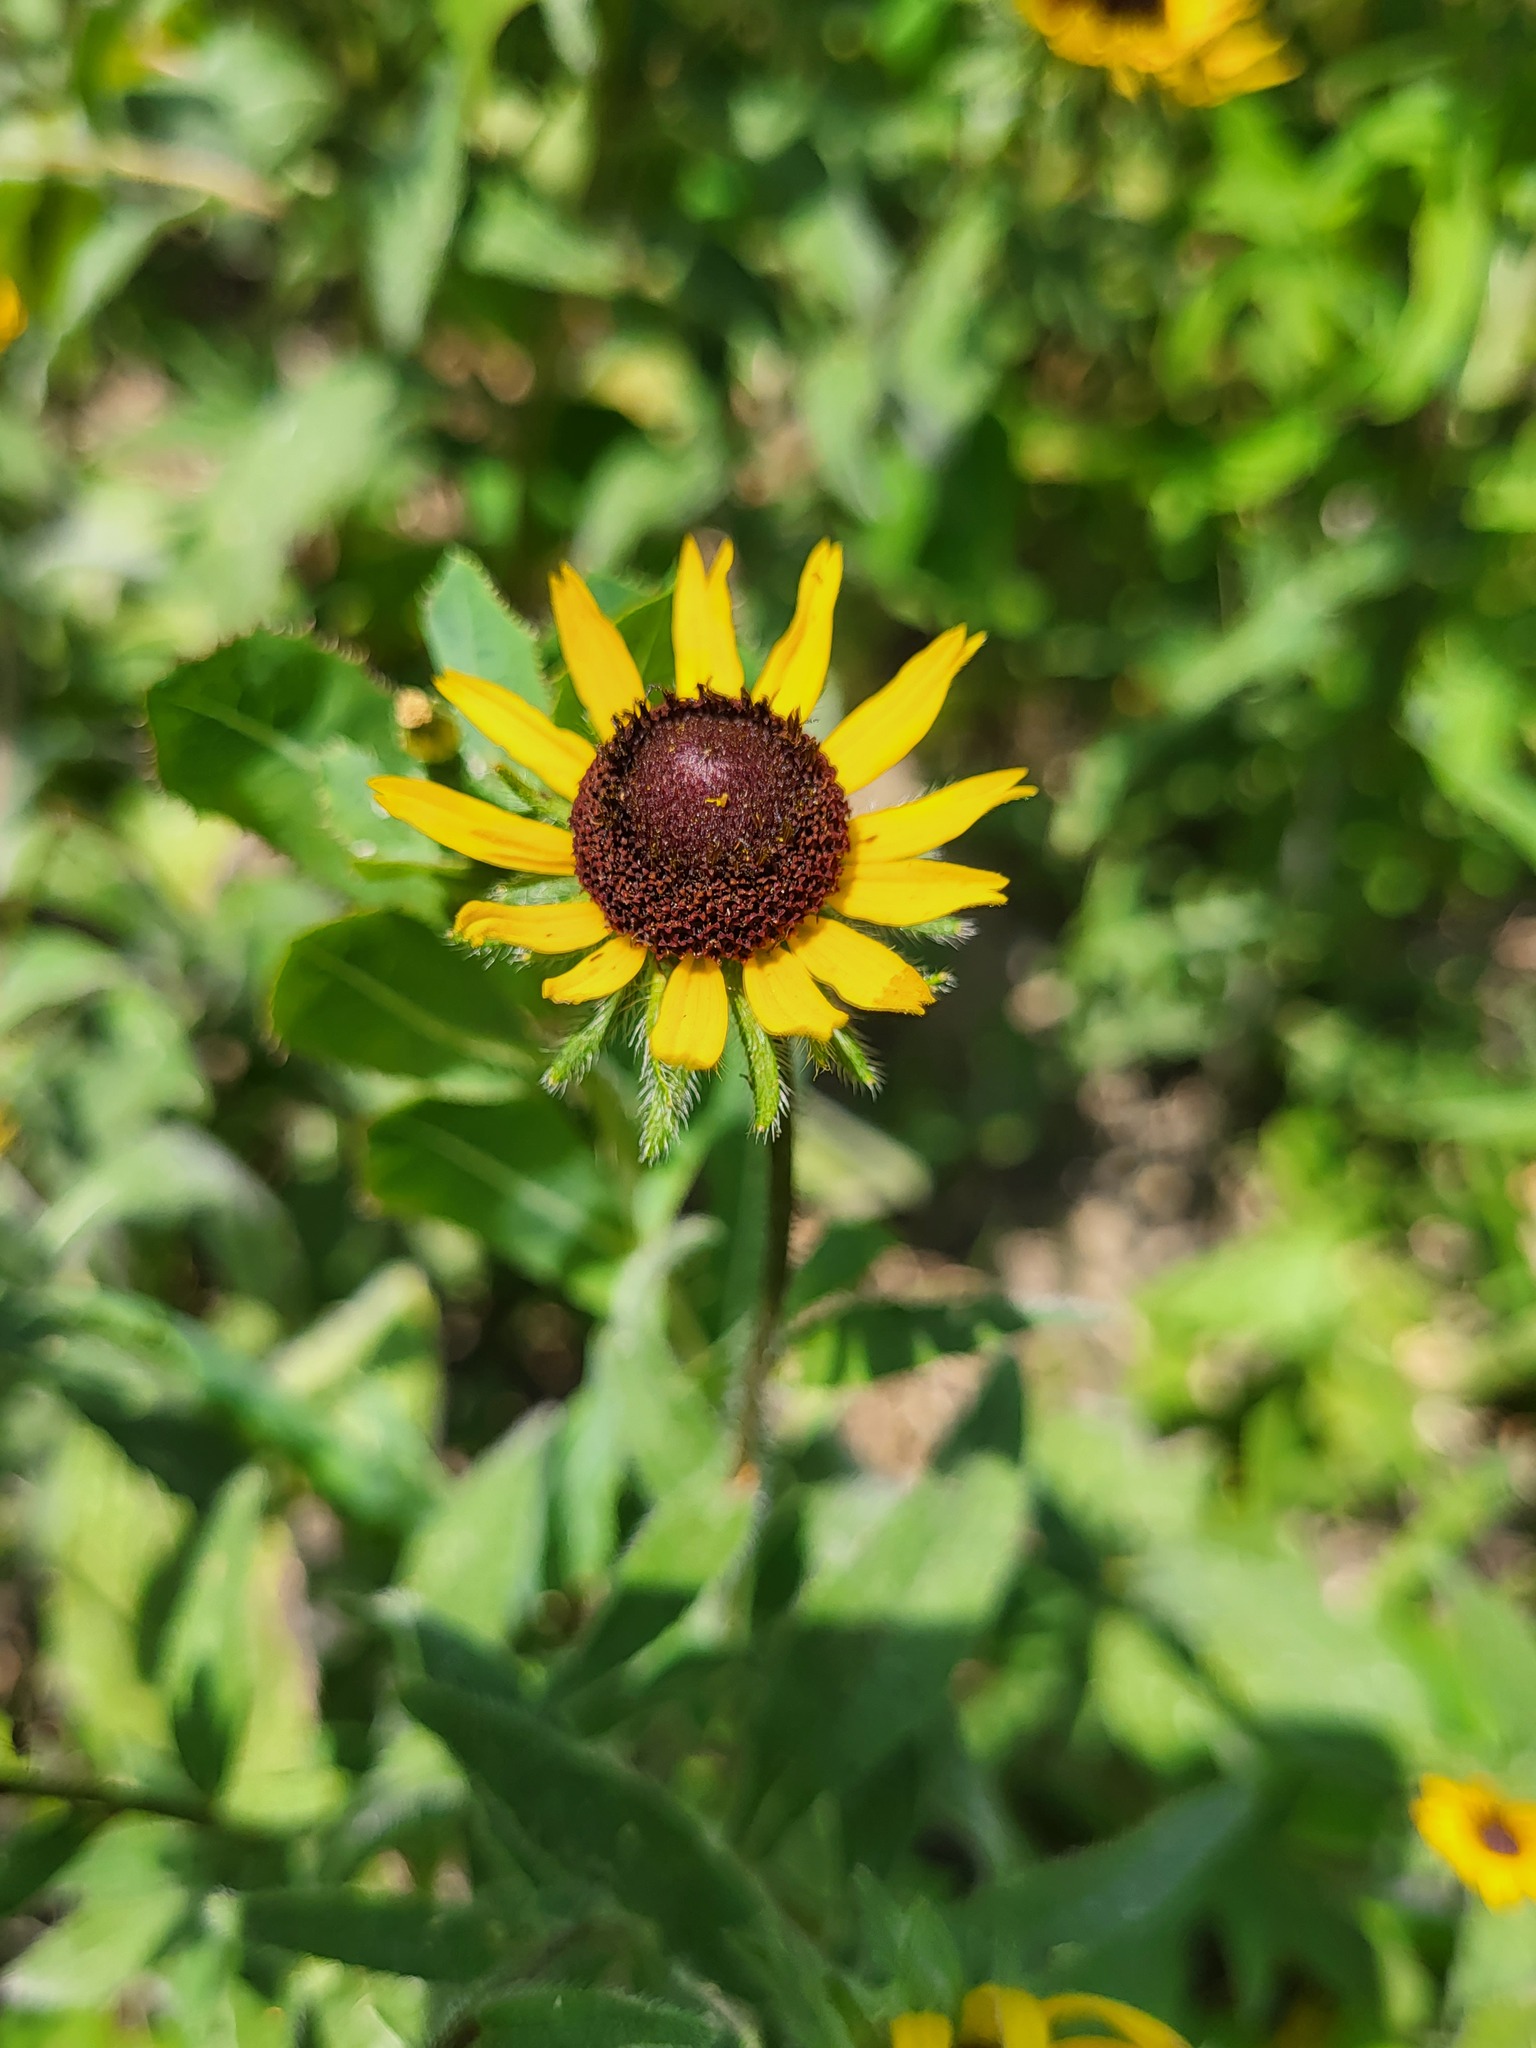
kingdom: Plantae
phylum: Tracheophyta
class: Magnoliopsida
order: Asterales
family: Asteraceae
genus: Rudbeckia
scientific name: Rudbeckia hirta
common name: Black-eyed-susan
